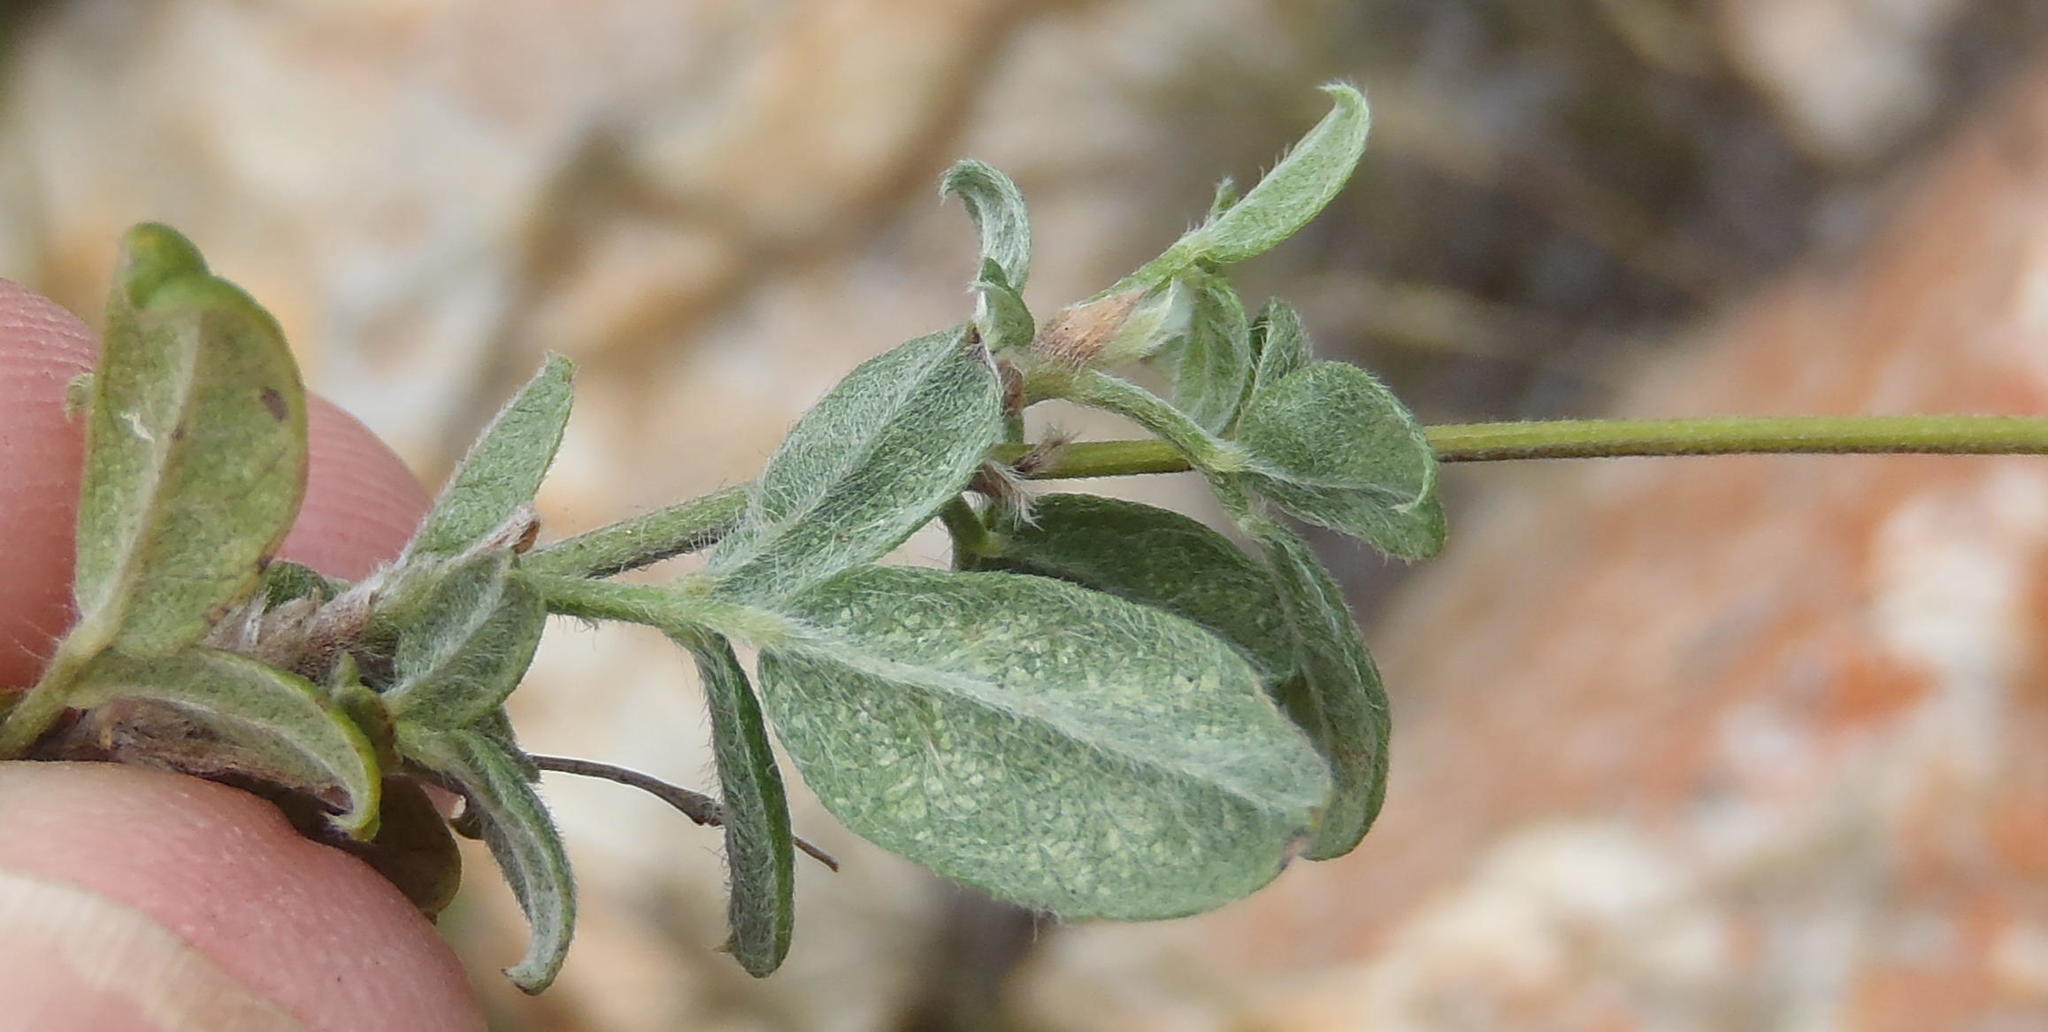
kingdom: Plantae
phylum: Tracheophyta
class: Magnoliopsida
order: Fabales
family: Fabaceae
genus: Psoralea
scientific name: Psoralea swartbergensis
